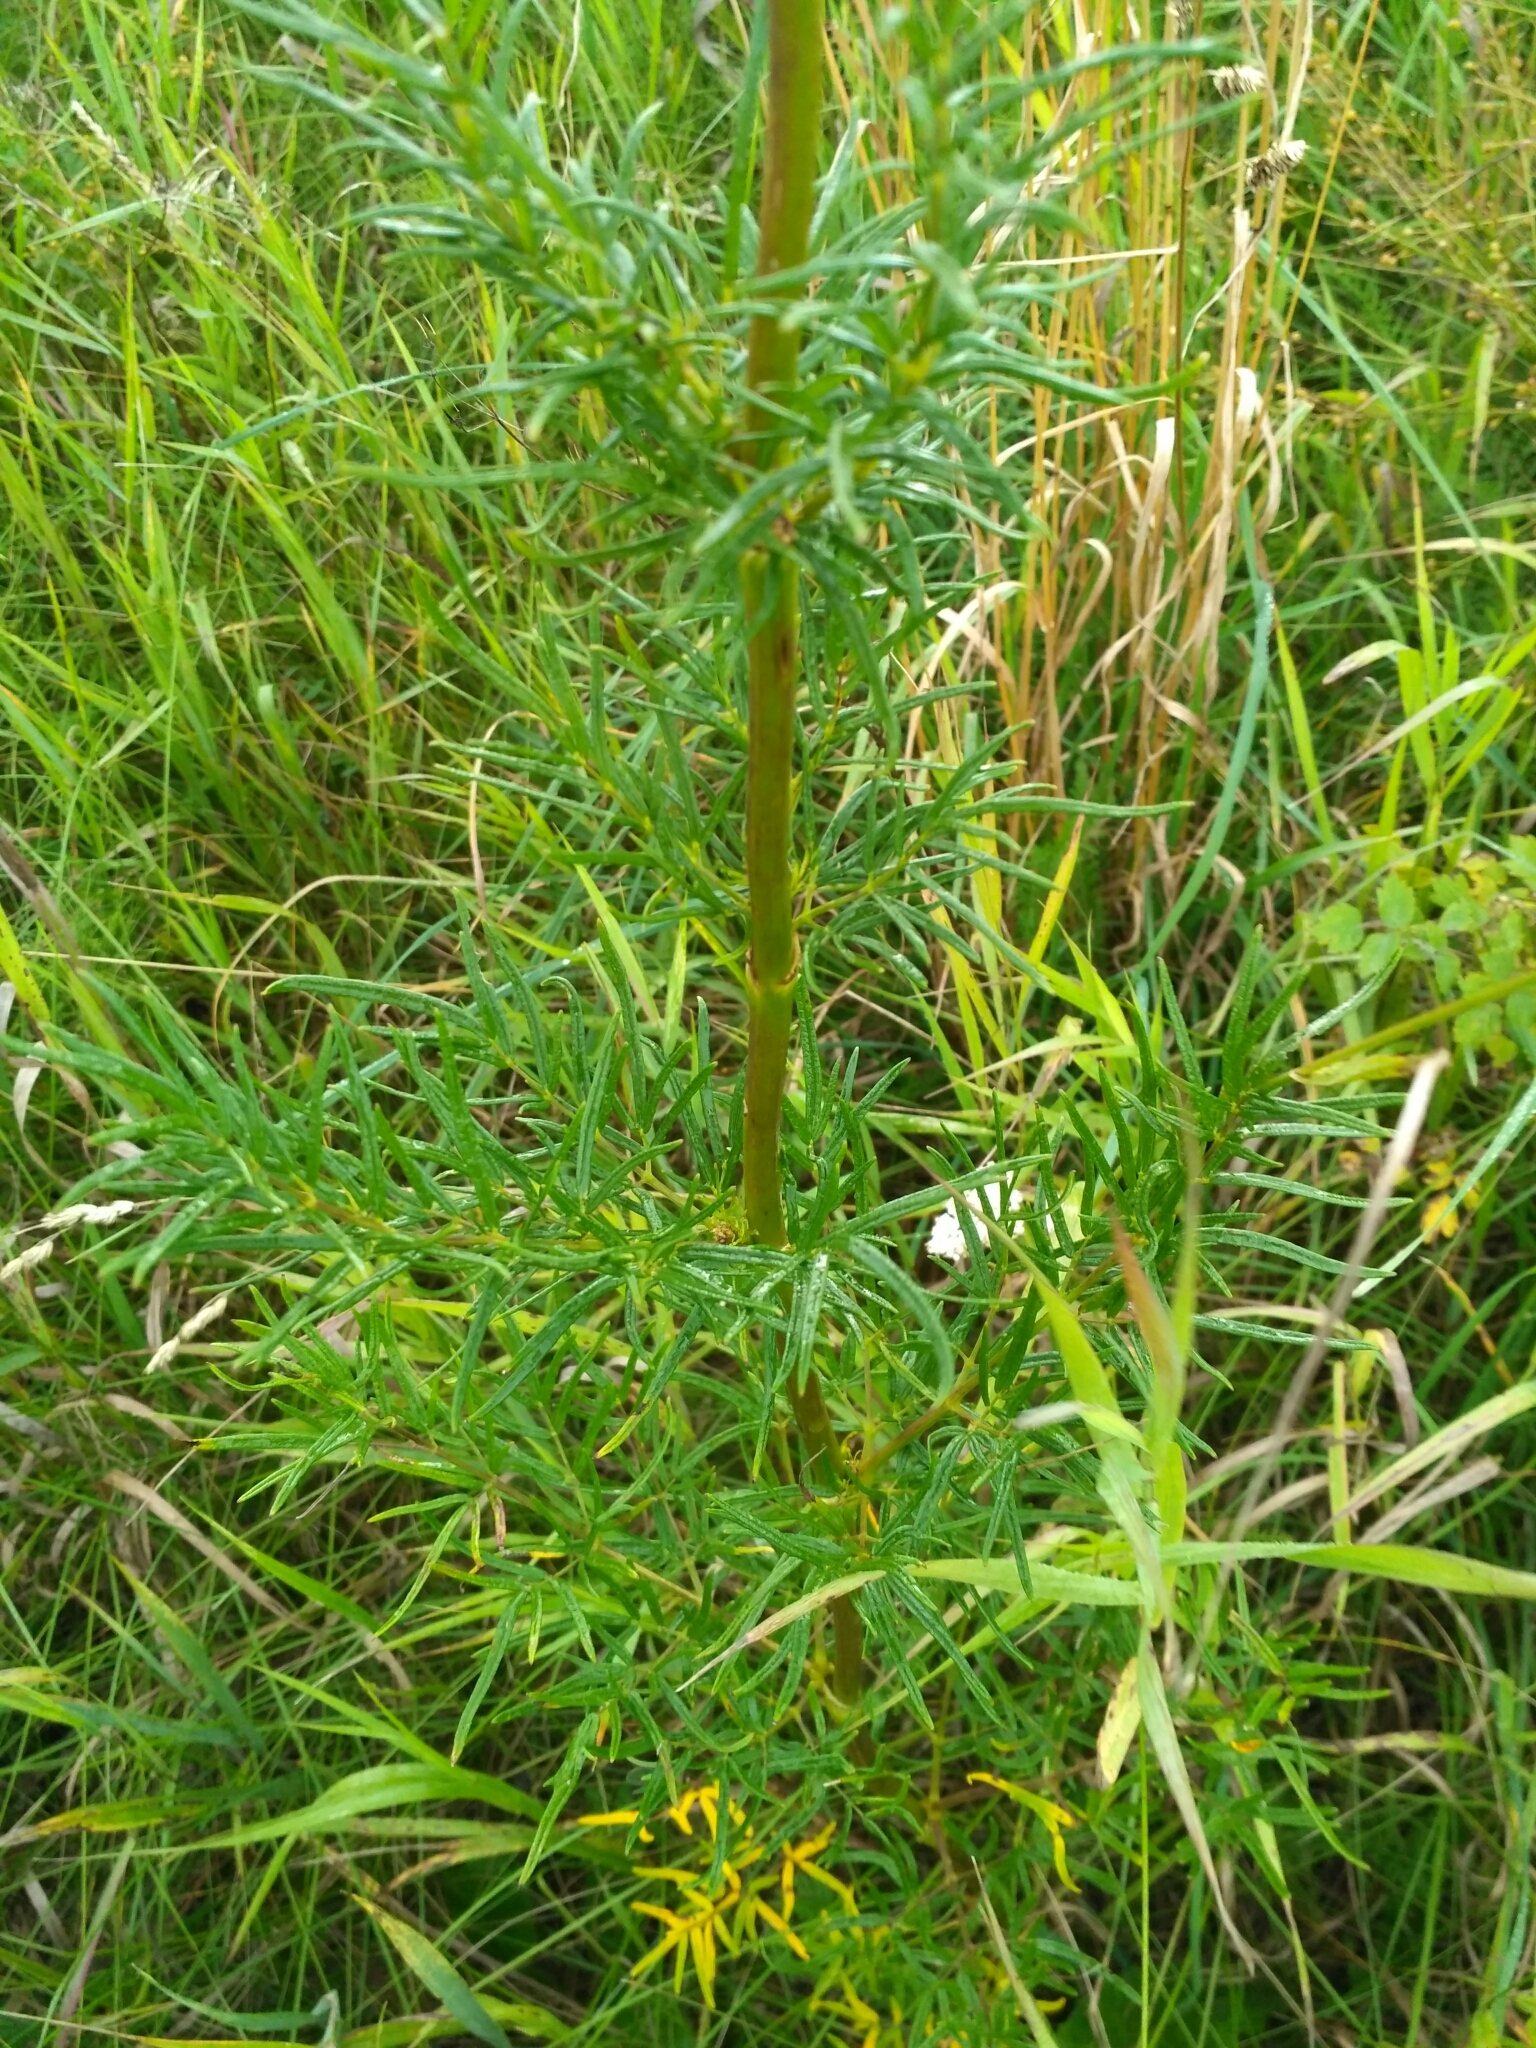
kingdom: Plantae
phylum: Tracheophyta
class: Magnoliopsida
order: Ranunculales
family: Ranunculaceae
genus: Thalictrum
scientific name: Thalictrum lucidum
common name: Shining meadow-rue
